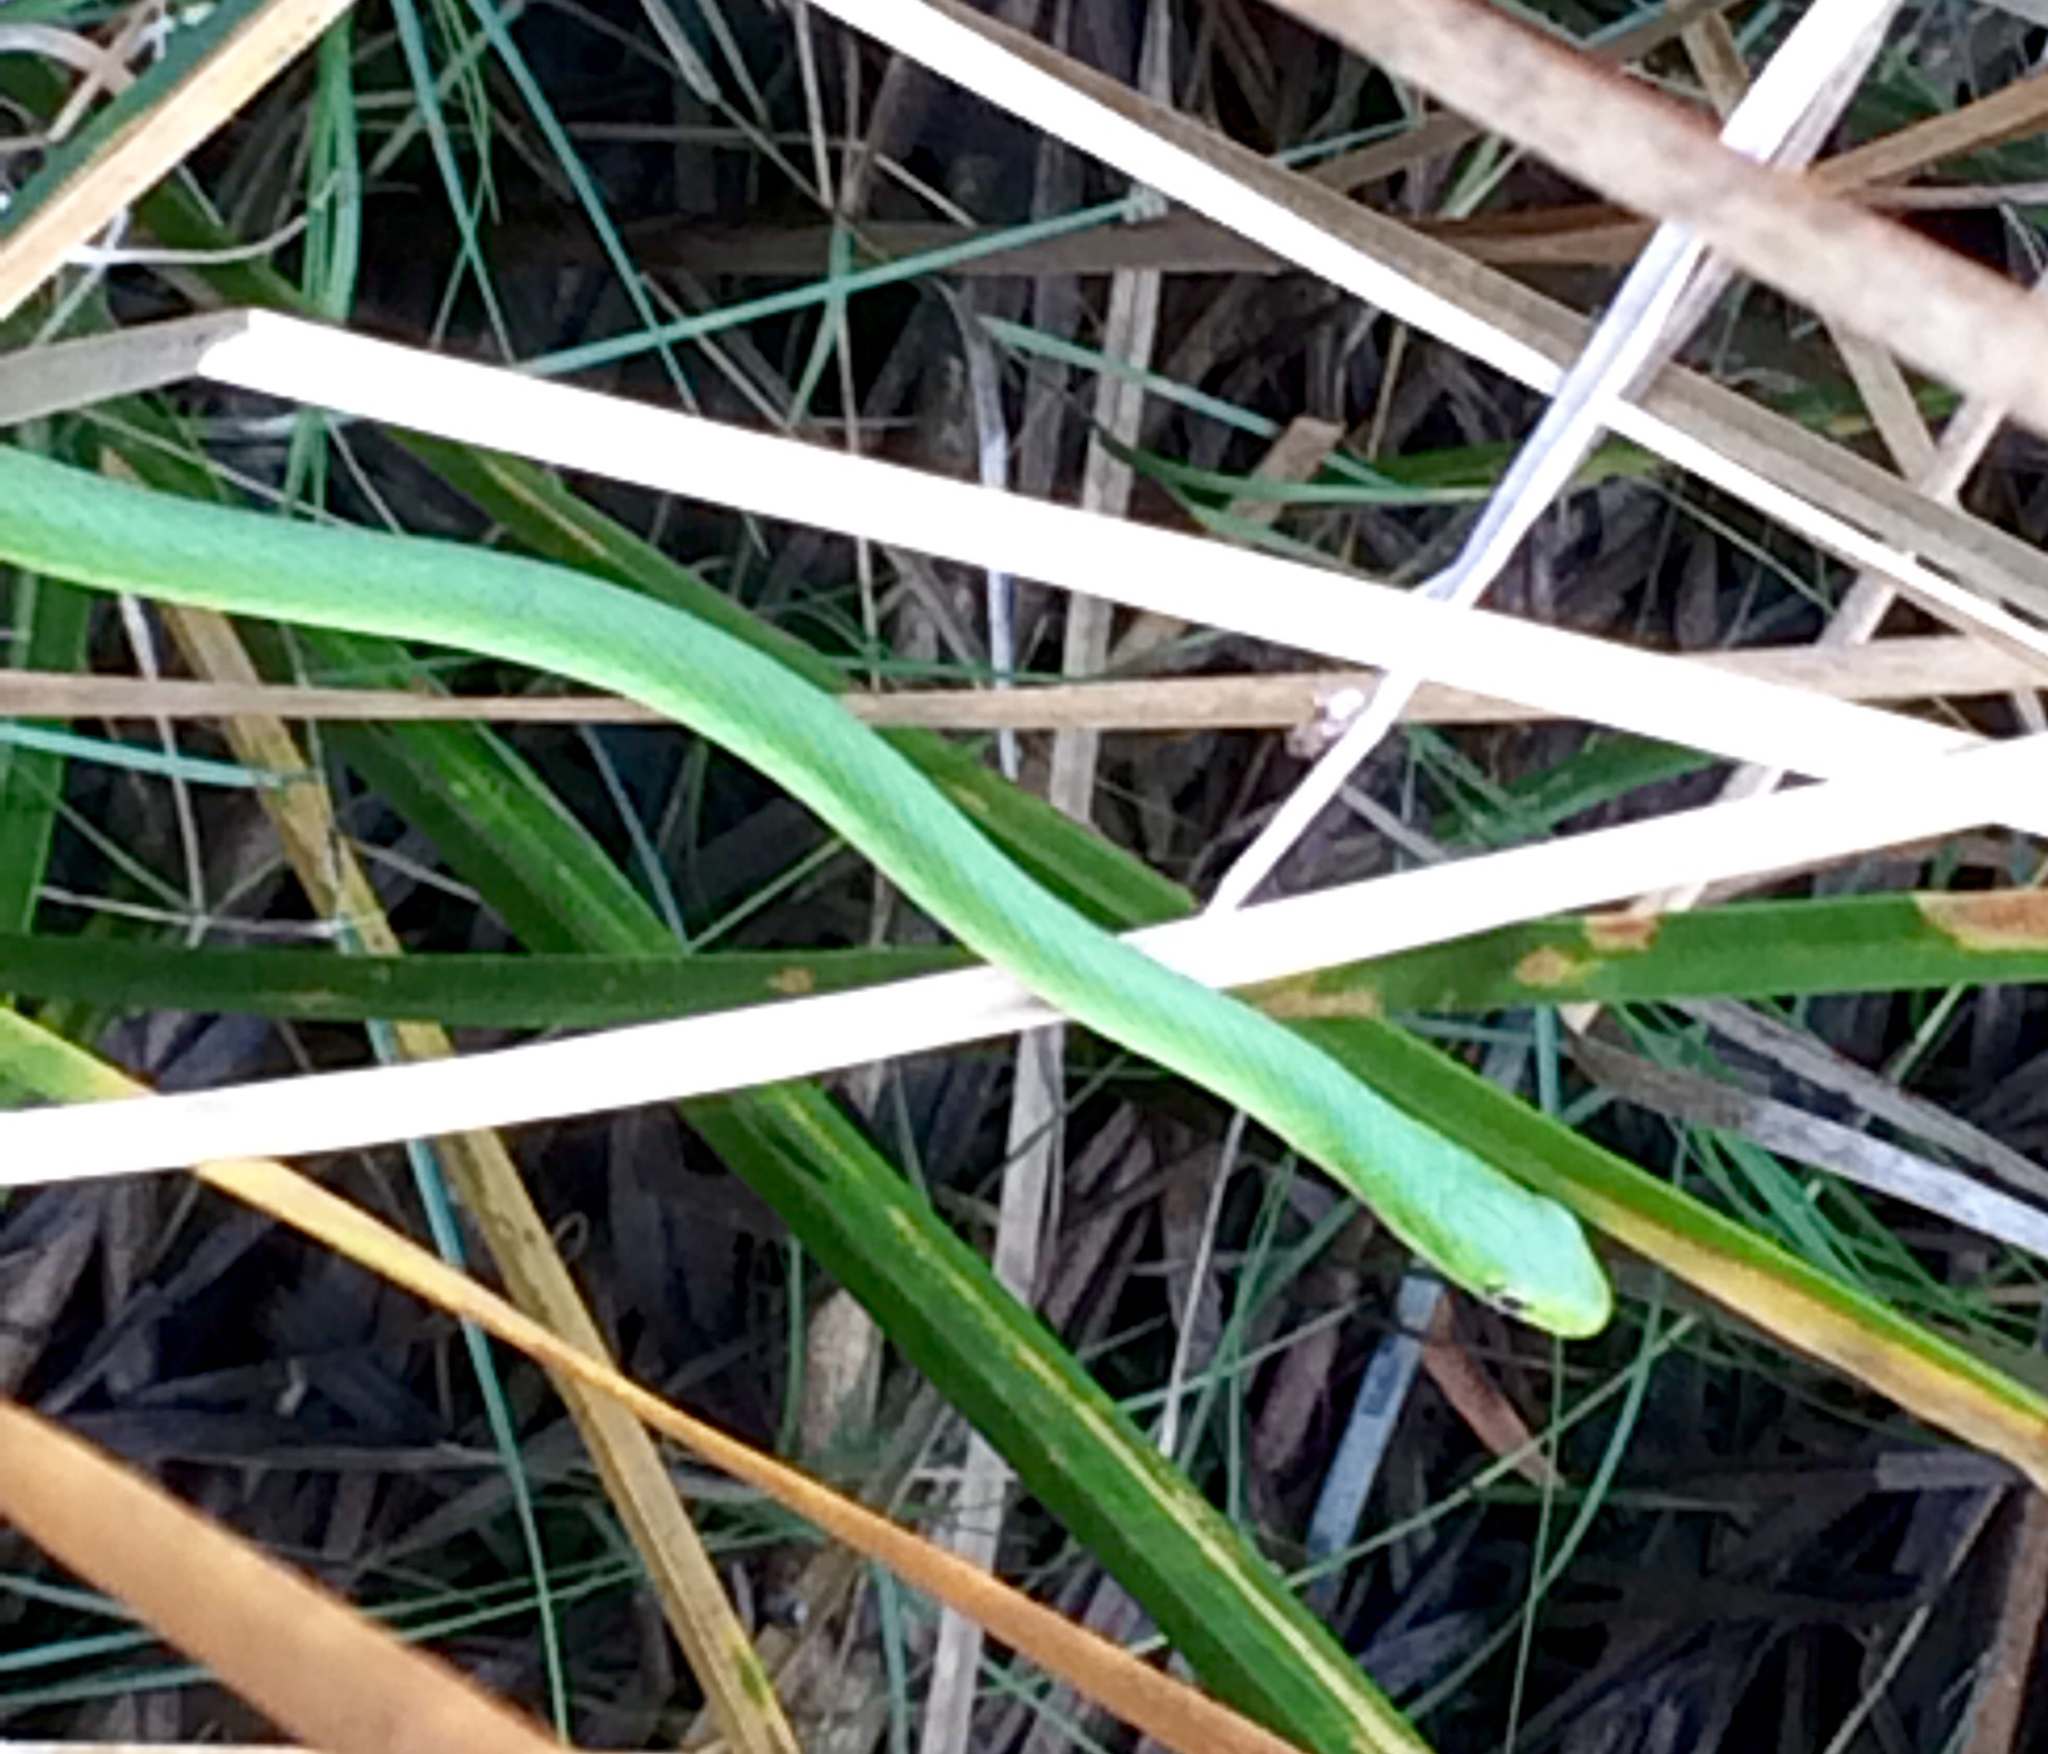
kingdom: Animalia
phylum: Chordata
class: Squamata
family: Colubridae
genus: Opheodrys
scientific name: Opheodrys aestivus
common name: Rough greensnake
